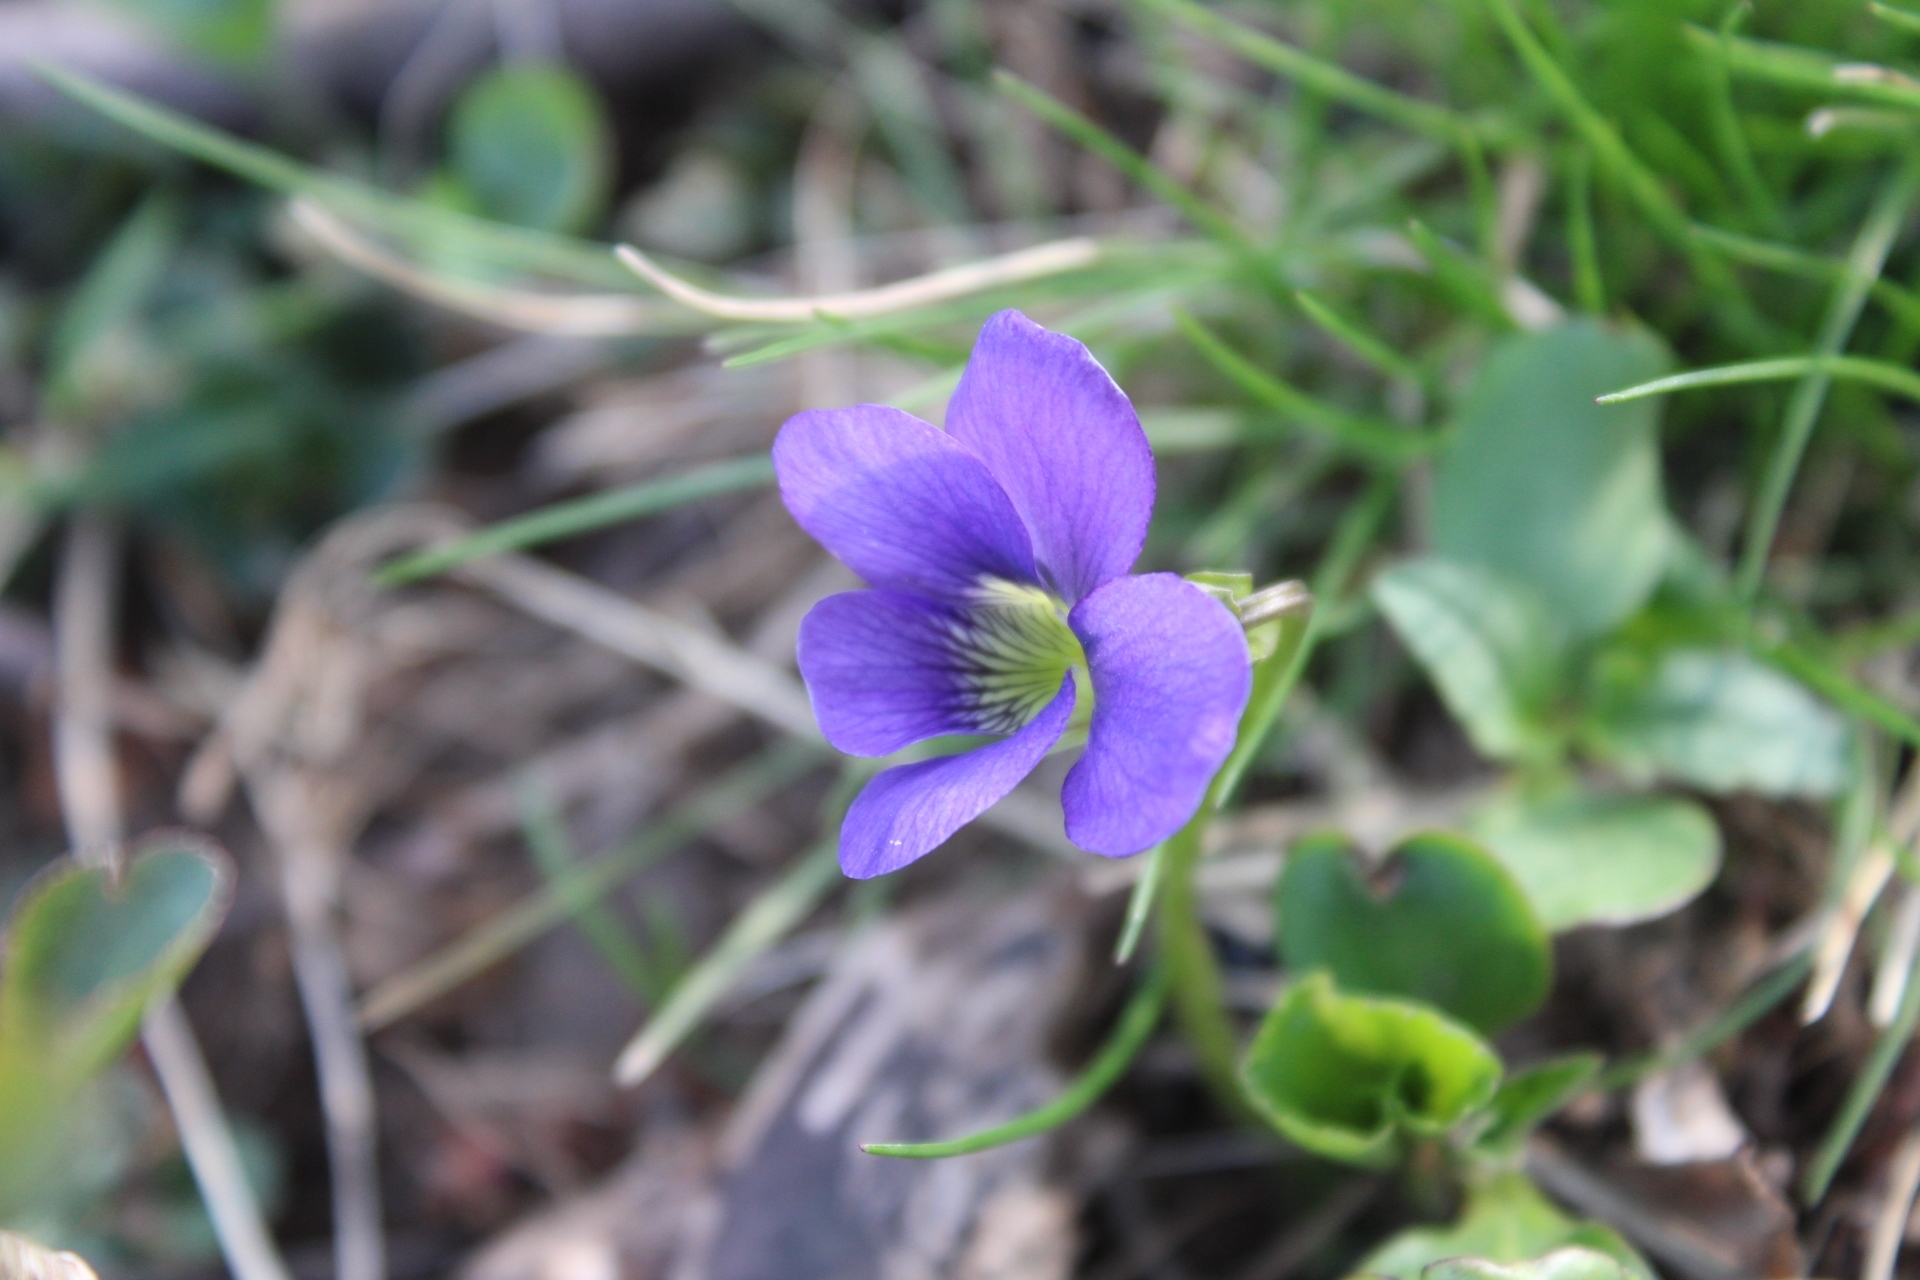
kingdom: Plantae
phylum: Tracheophyta
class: Magnoliopsida
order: Malpighiales
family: Violaceae
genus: Viola
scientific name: Viola sororia
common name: Dooryard violet
